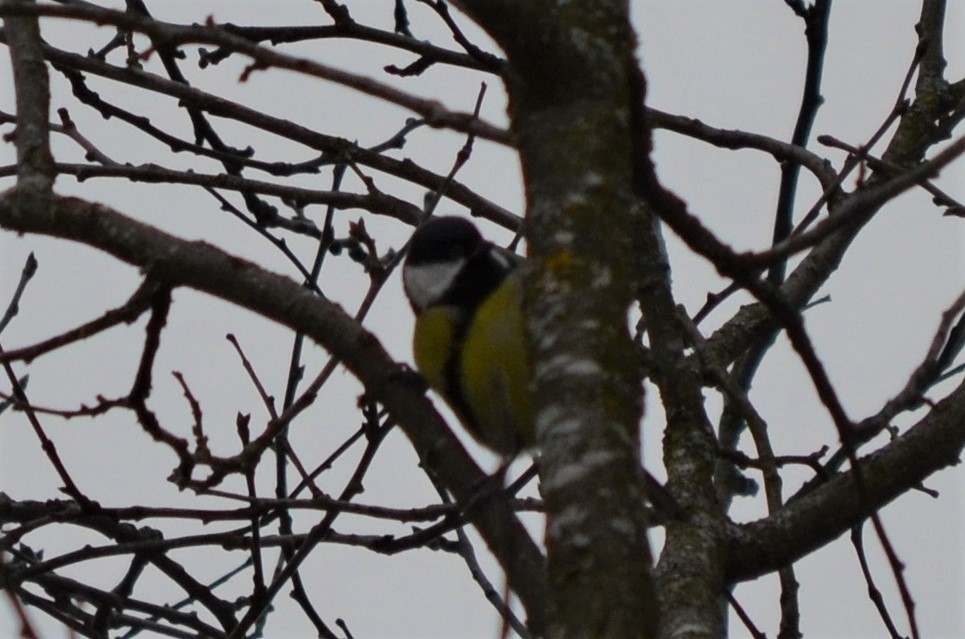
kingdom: Animalia
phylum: Chordata
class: Aves
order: Passeriformes
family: Paridae
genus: Parus
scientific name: Parus major
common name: Great tit
